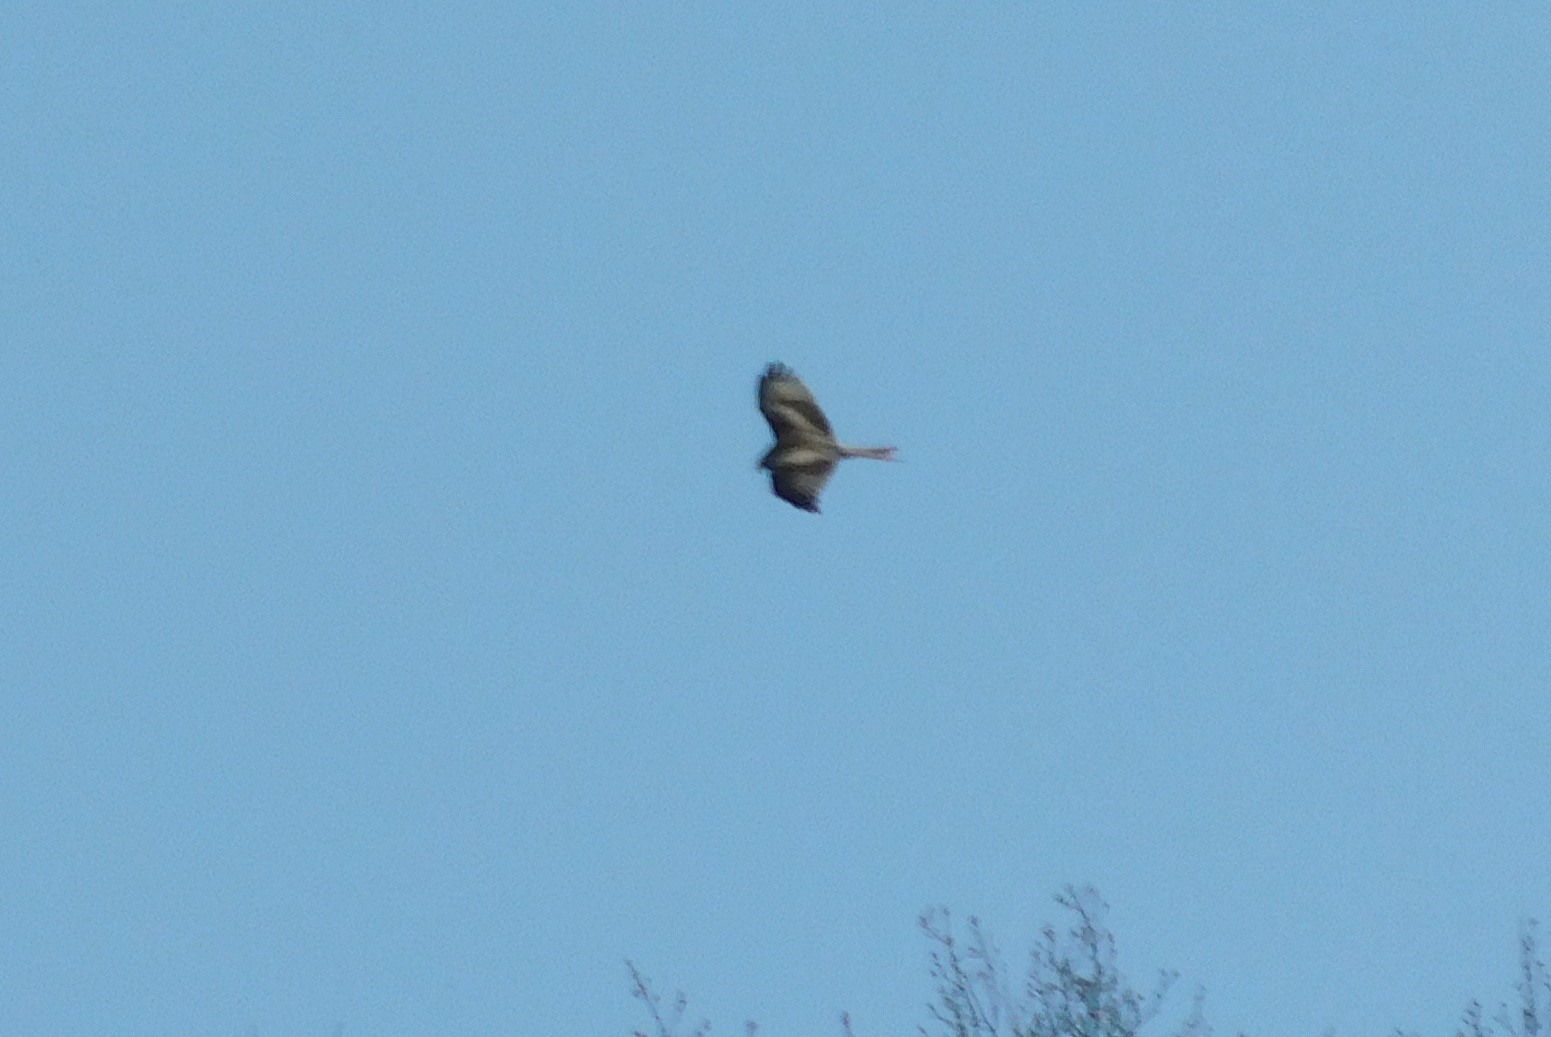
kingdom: Animalia
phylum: Chordata
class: Aves
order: Accipitriformes
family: Accipitridae
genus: Milvus
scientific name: Milvus milvus
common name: Red kite
